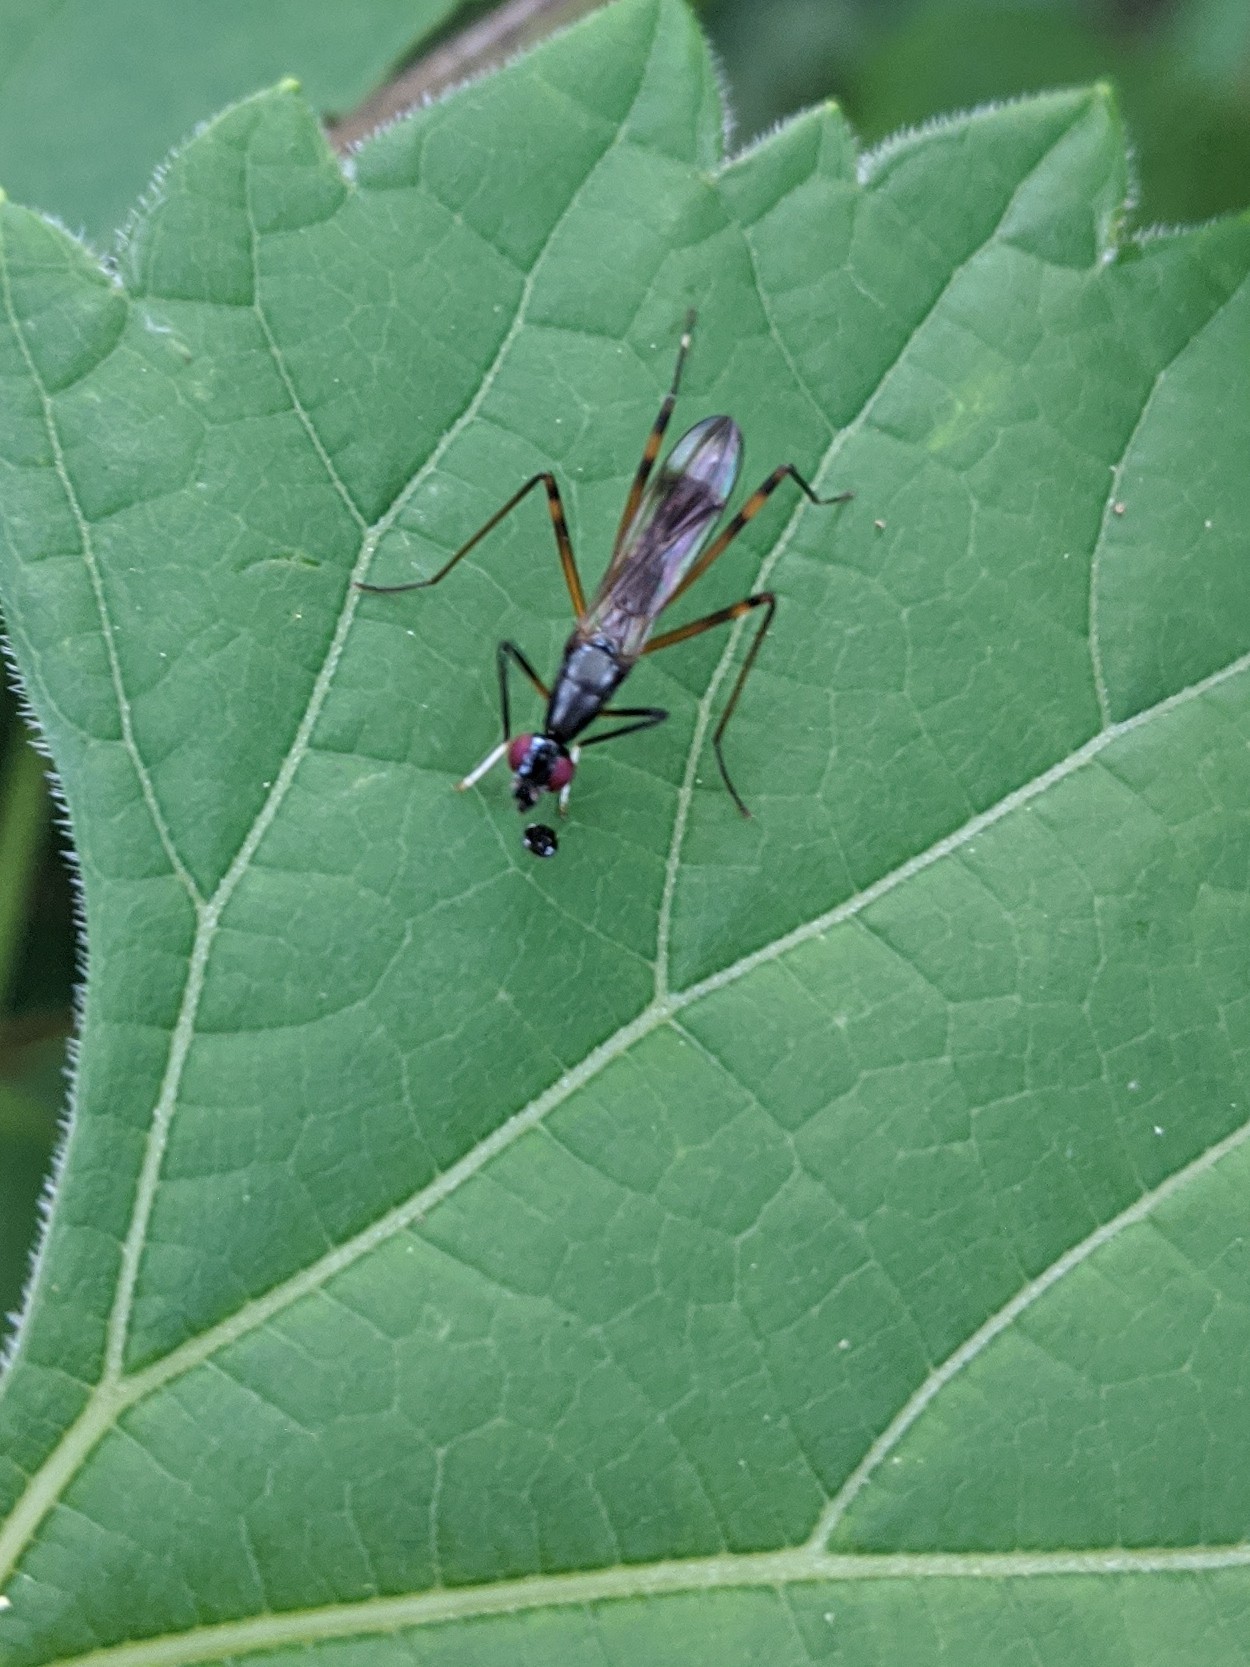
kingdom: Animalia
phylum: Arthropoda
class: Insecta
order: Diptera
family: Micropezidae
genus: Rainieria
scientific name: Rainieria antennaepes
